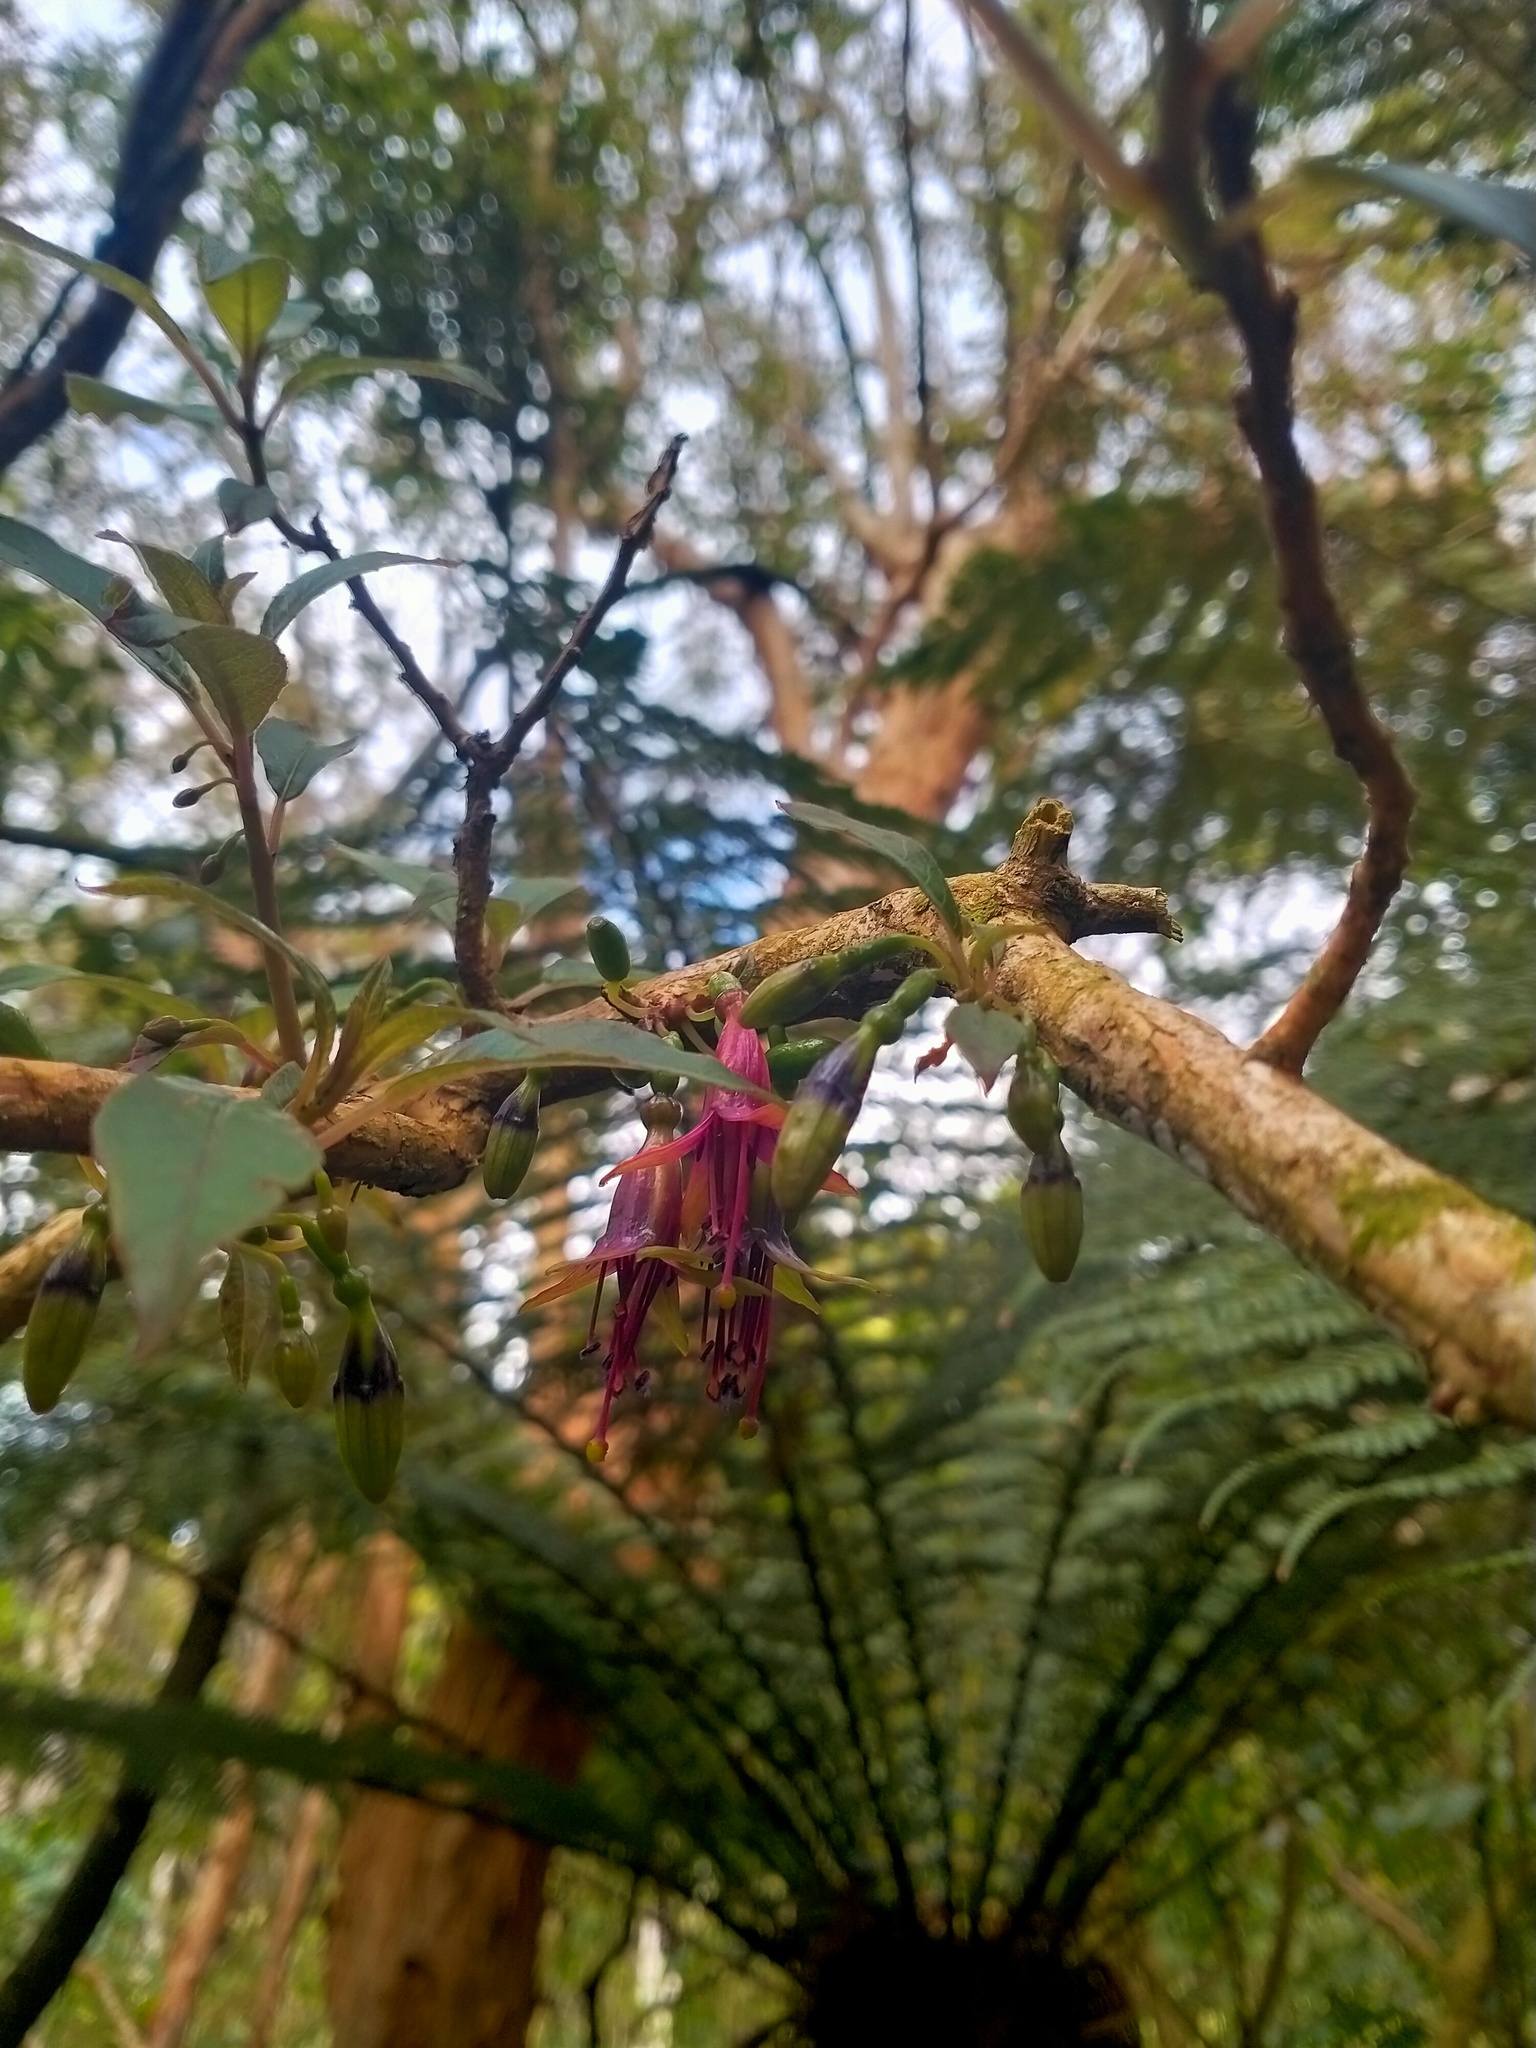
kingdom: Plantae
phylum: Tracheophyta
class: Magnoliopsida
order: Myrtales
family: Onagraceae
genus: Fuchsia
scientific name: Fuchsia excorticata
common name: Tree fuchsia
